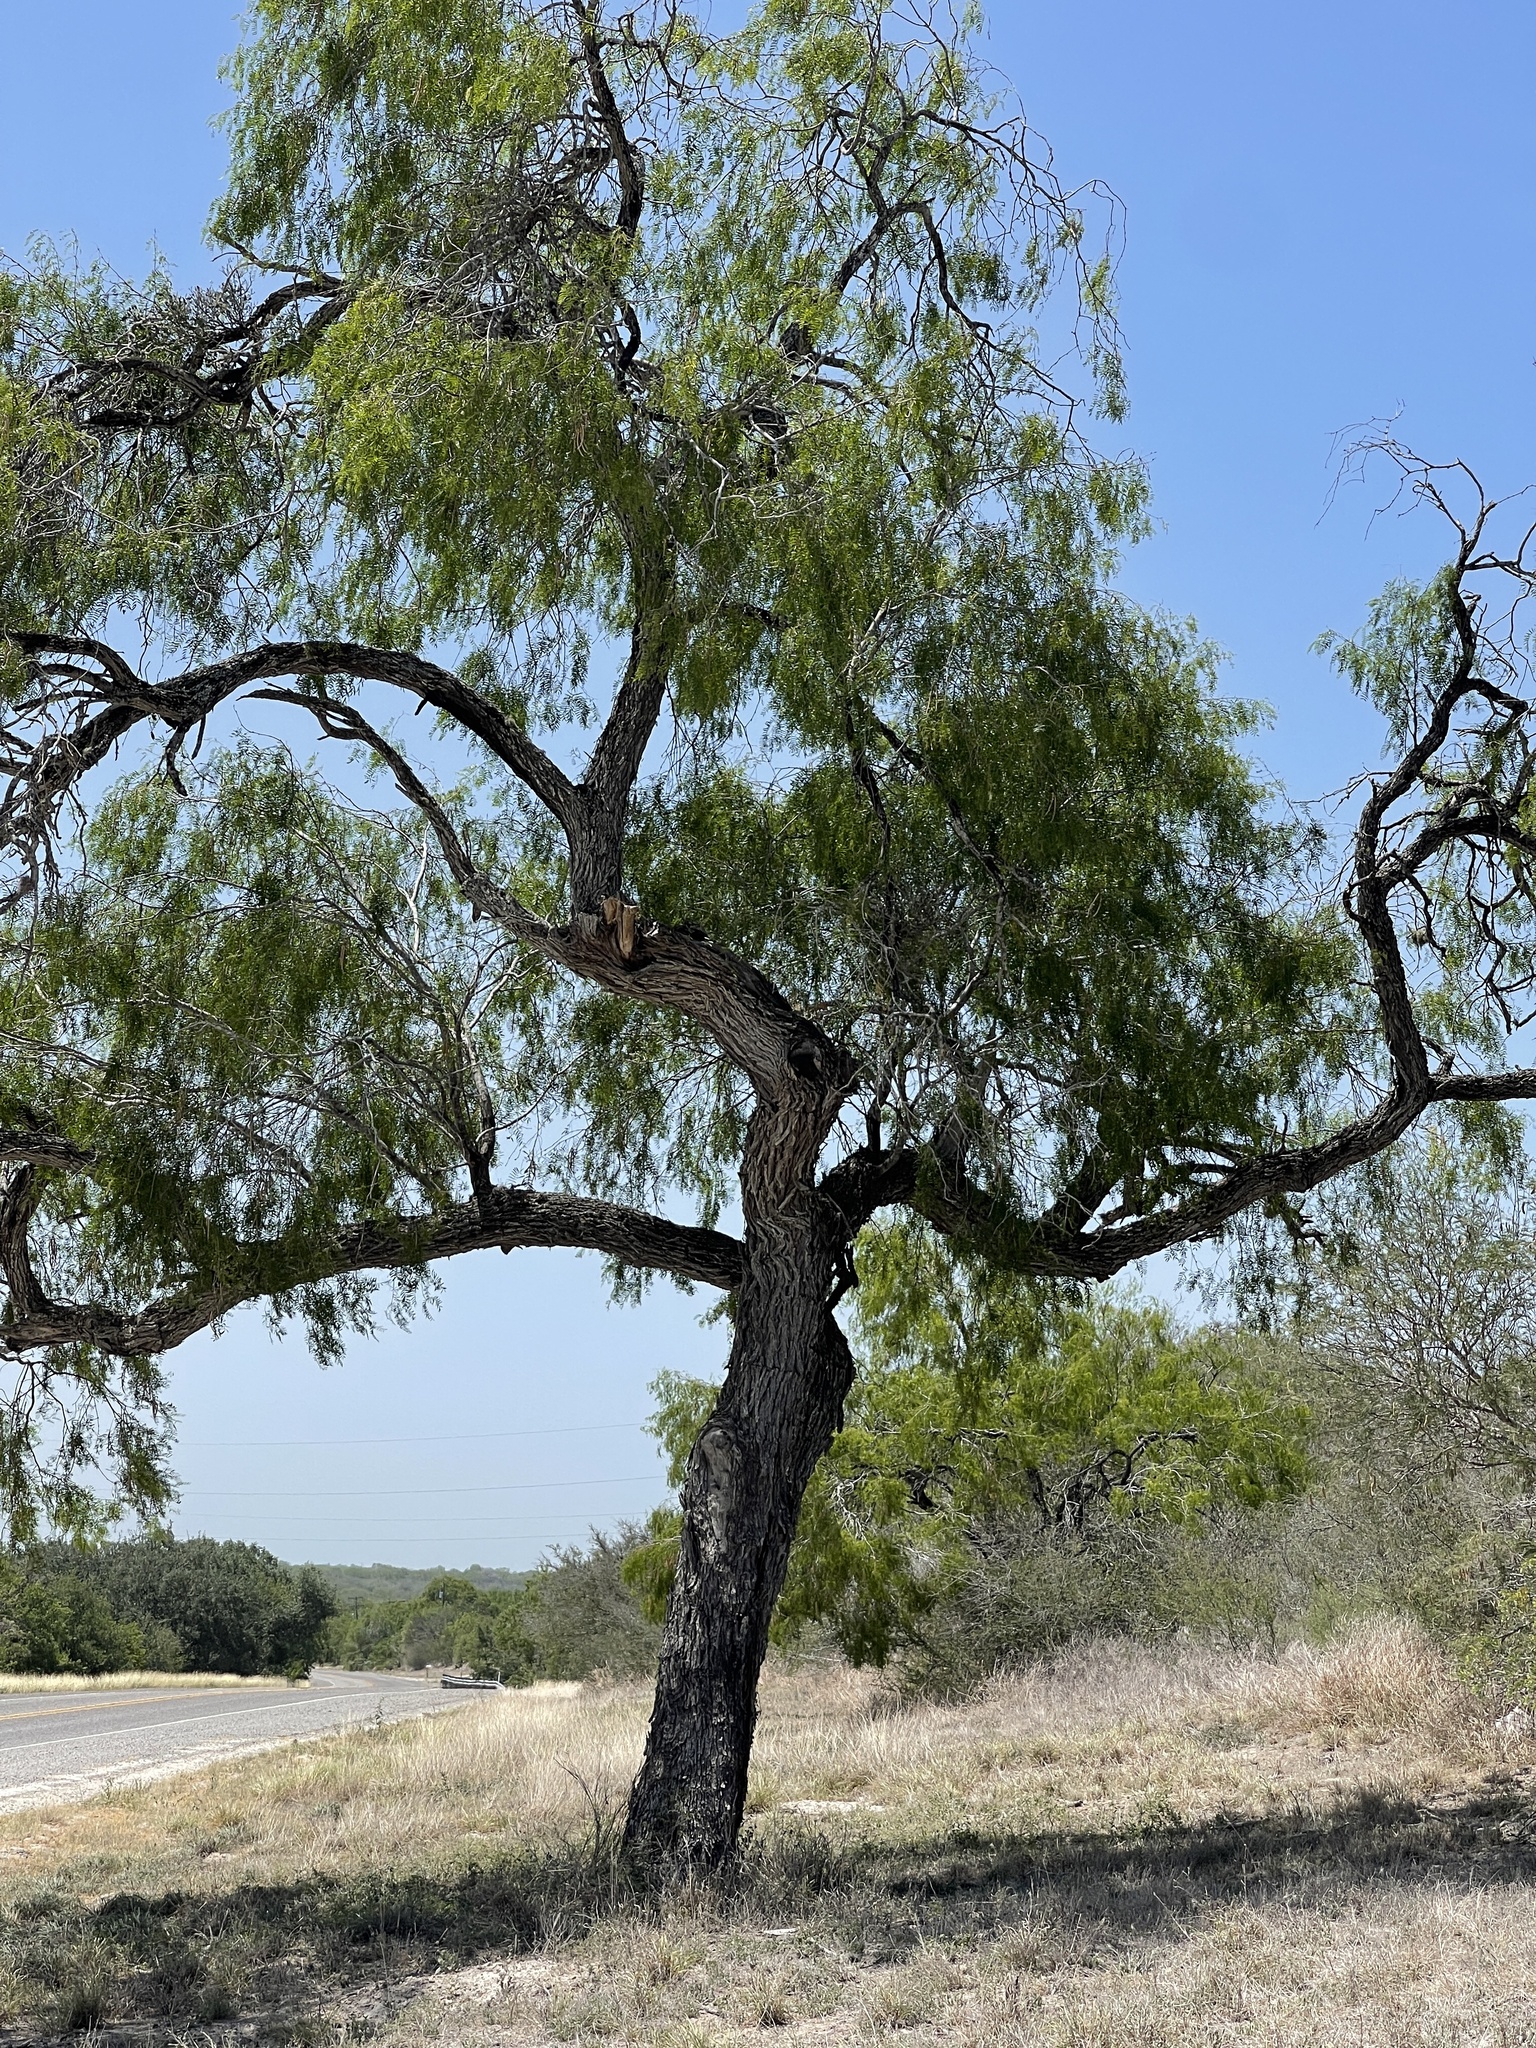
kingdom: Plantae
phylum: Tracheophyta
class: Magnoliopsida
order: Fabales
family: Fabaceae
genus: Prosopis
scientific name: Prosopis glandulosa
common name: Honey mesquite
